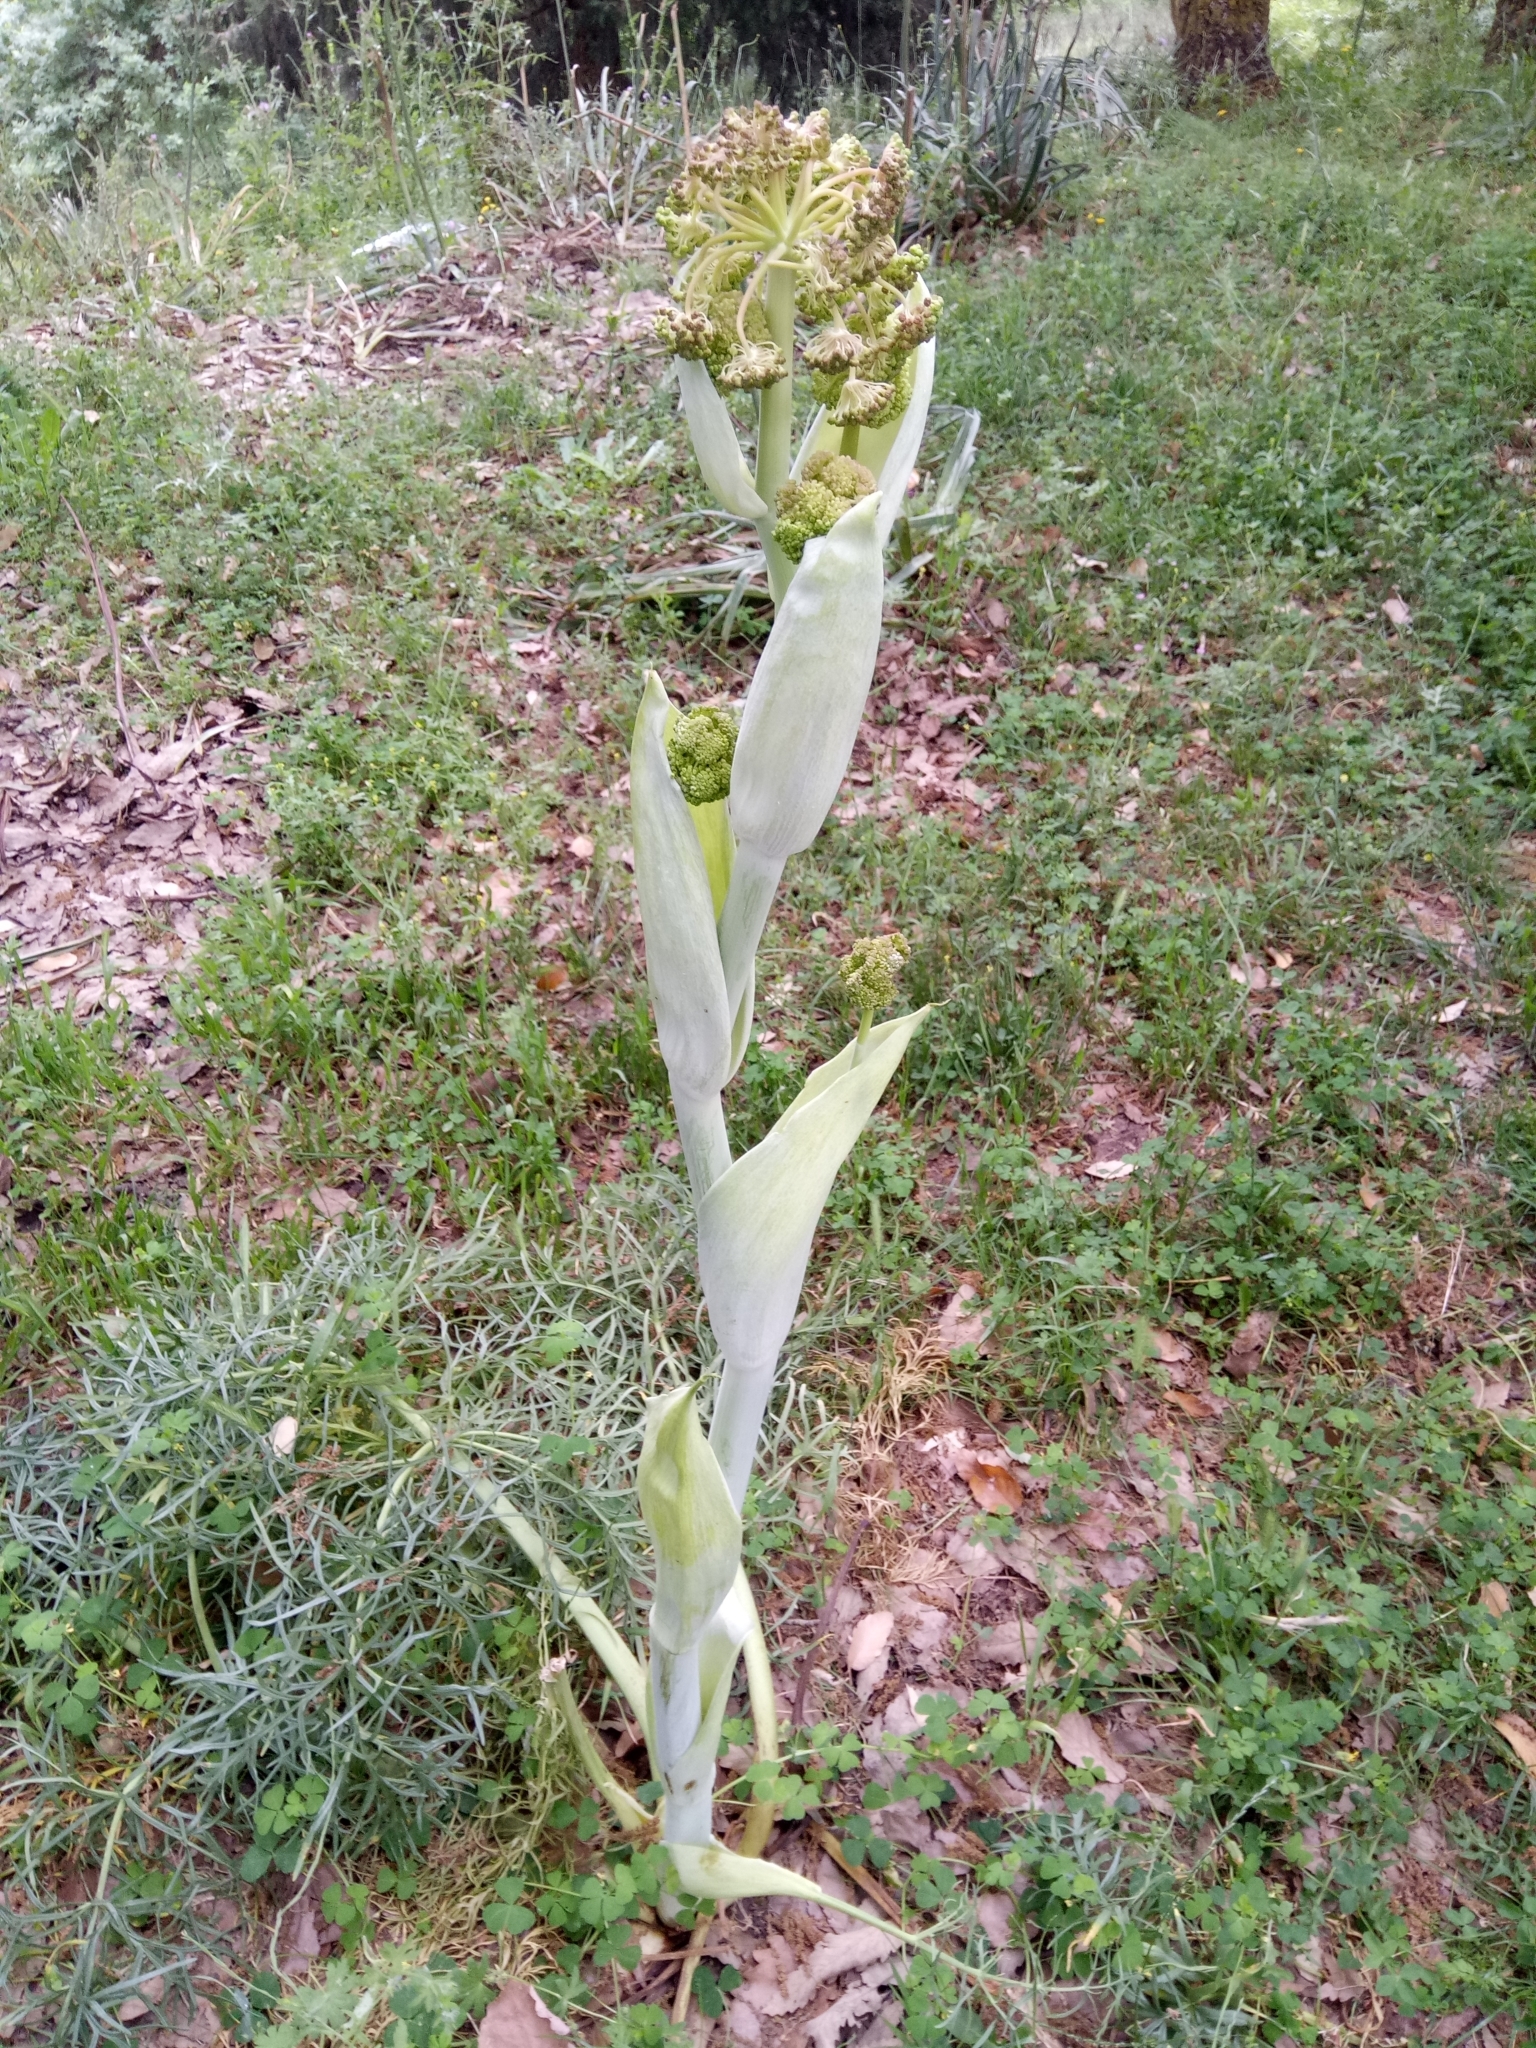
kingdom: Plantae
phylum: Tracheophyta
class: Magnoliopsida
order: Apiales
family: Apiaceae
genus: Ferula
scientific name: Ferula communis
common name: Giant fennel
